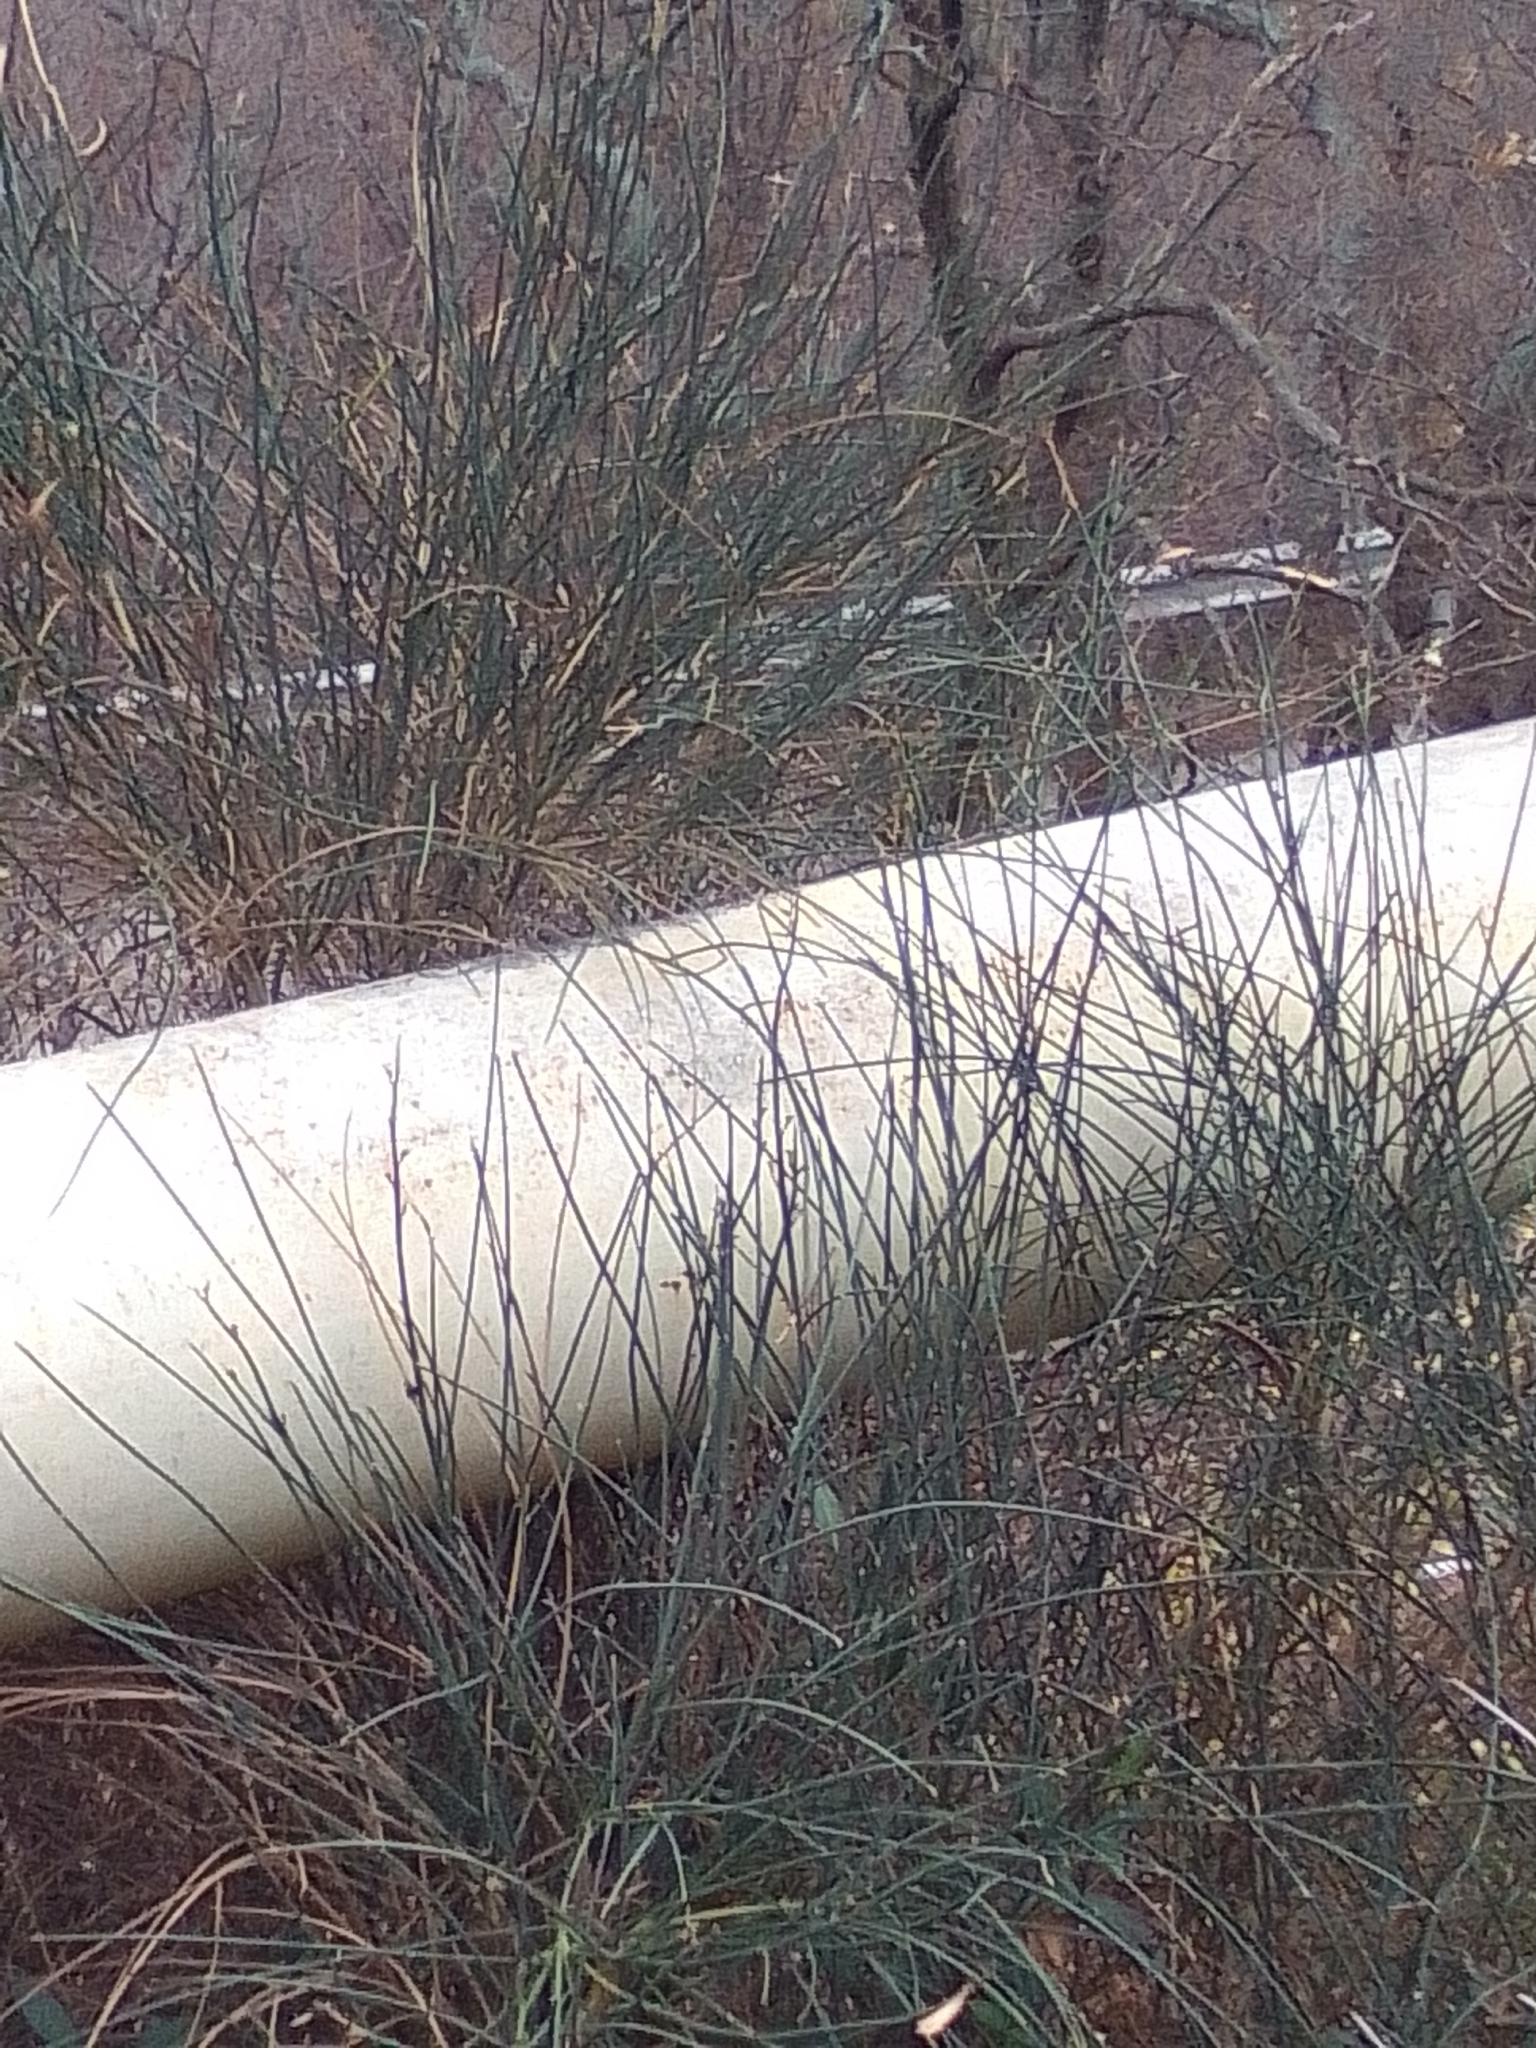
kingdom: Plantae
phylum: Tracheophyta
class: Magnoliopsida
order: Fabales
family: Fabaceae
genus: Spartium
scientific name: Spartium junceum
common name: Spanish broom
